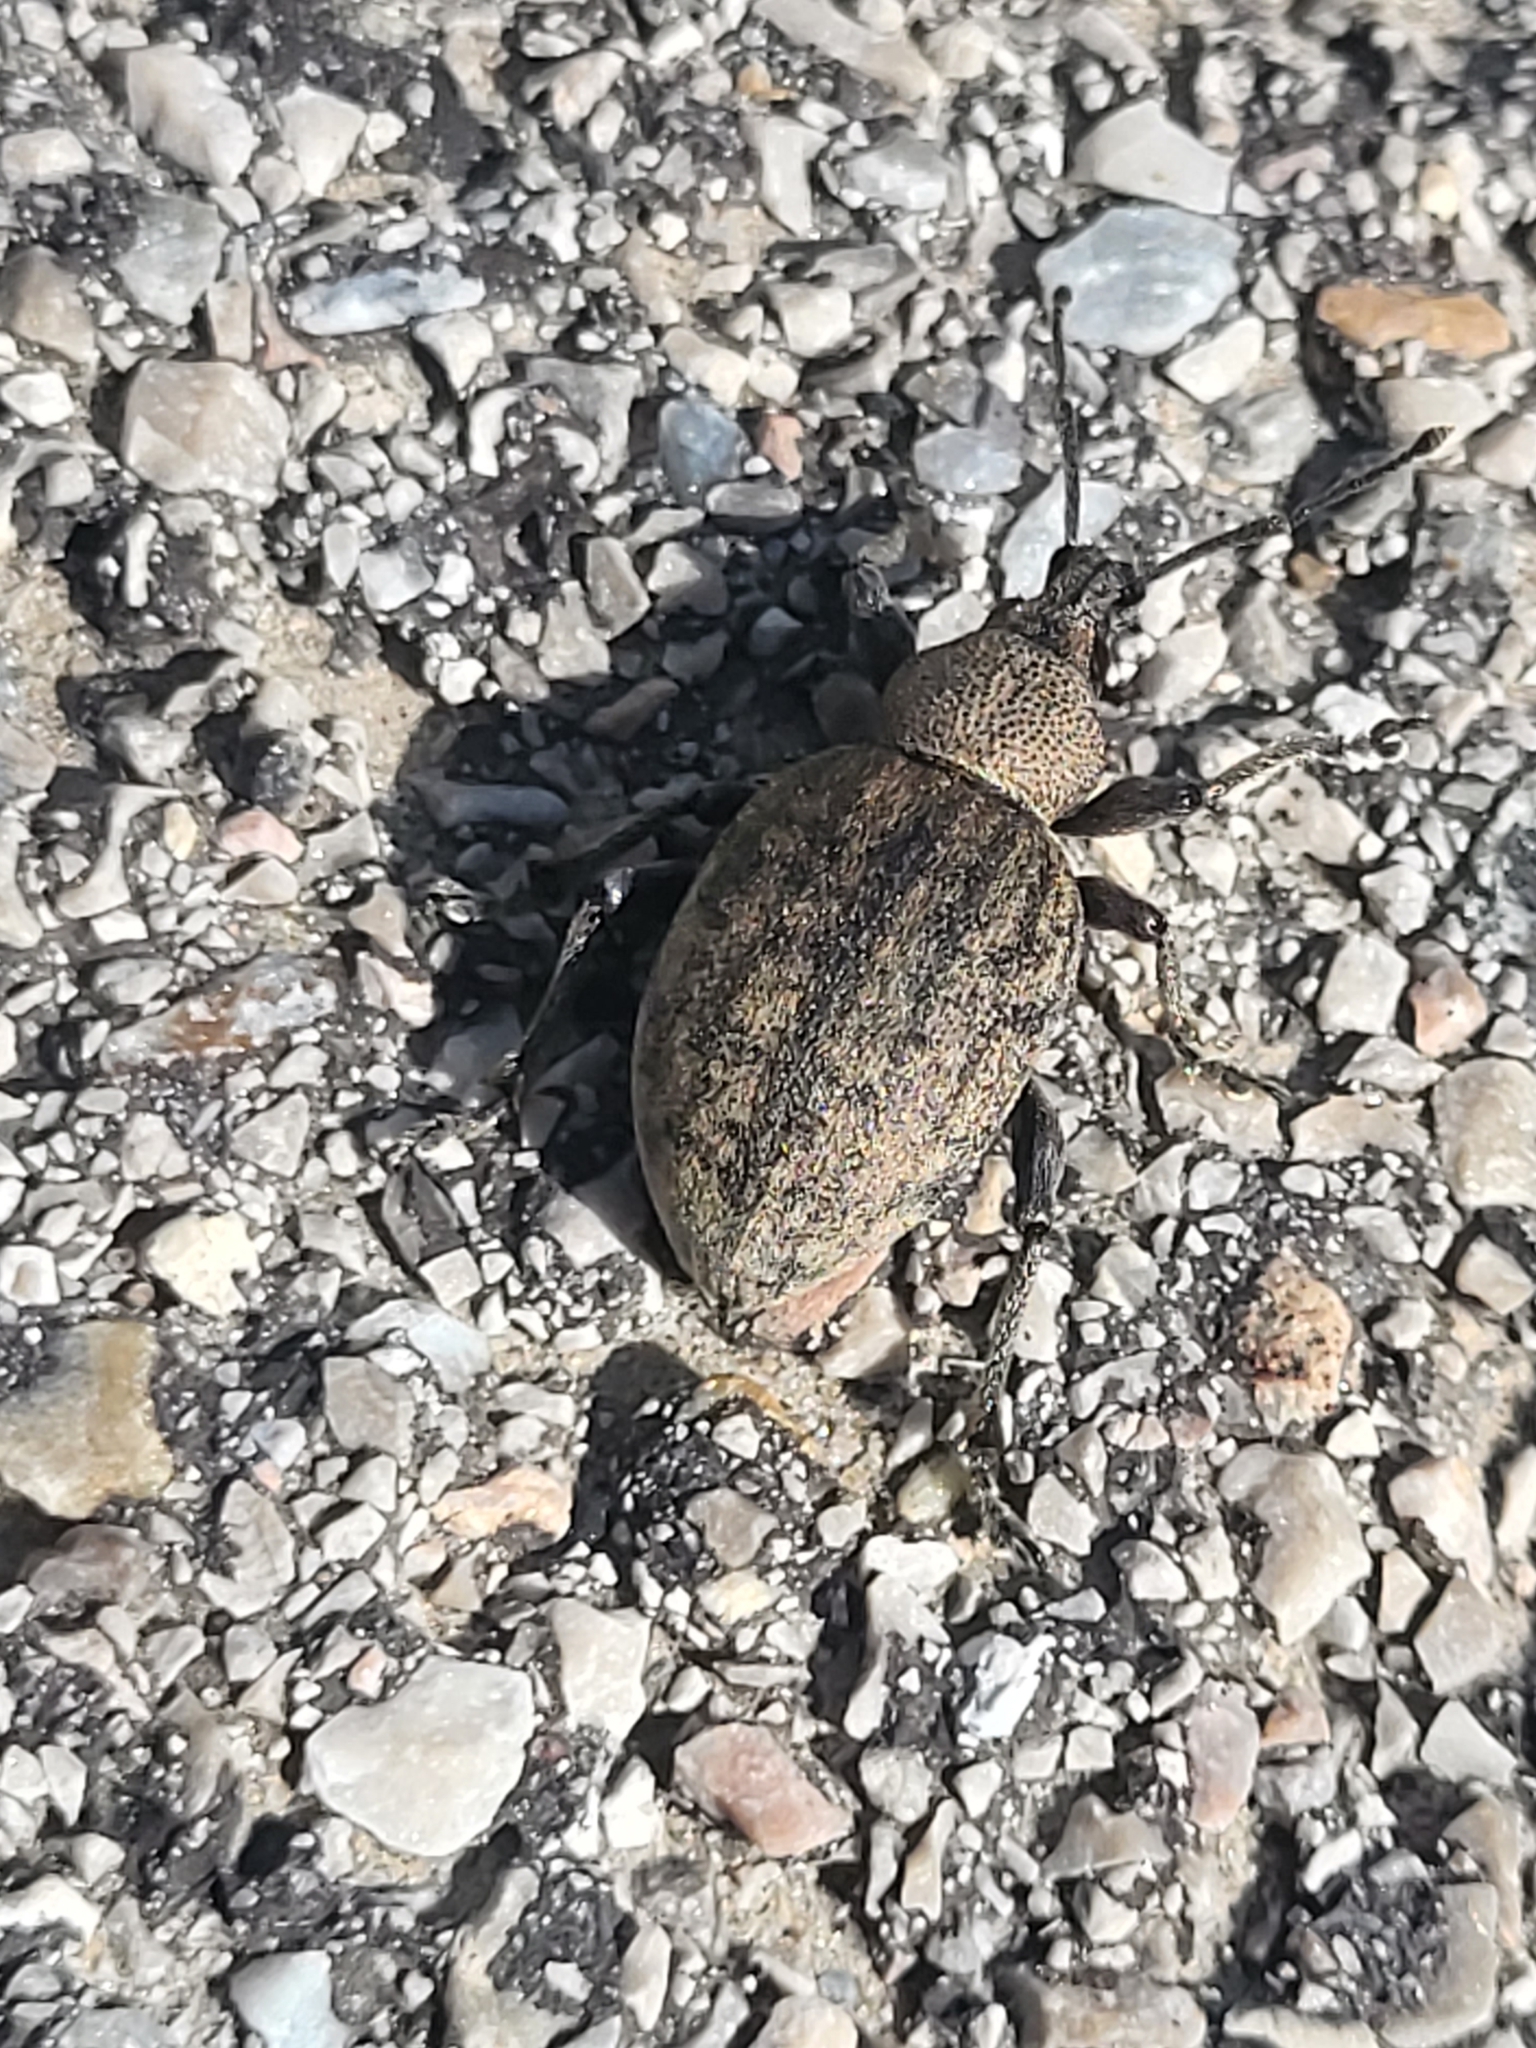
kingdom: Animalia
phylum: Arthropoda
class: Insecta
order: Coleoptera
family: Curculionidae
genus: Otiorhynchus
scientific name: Otiorhynchus ligustici
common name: Weevil
